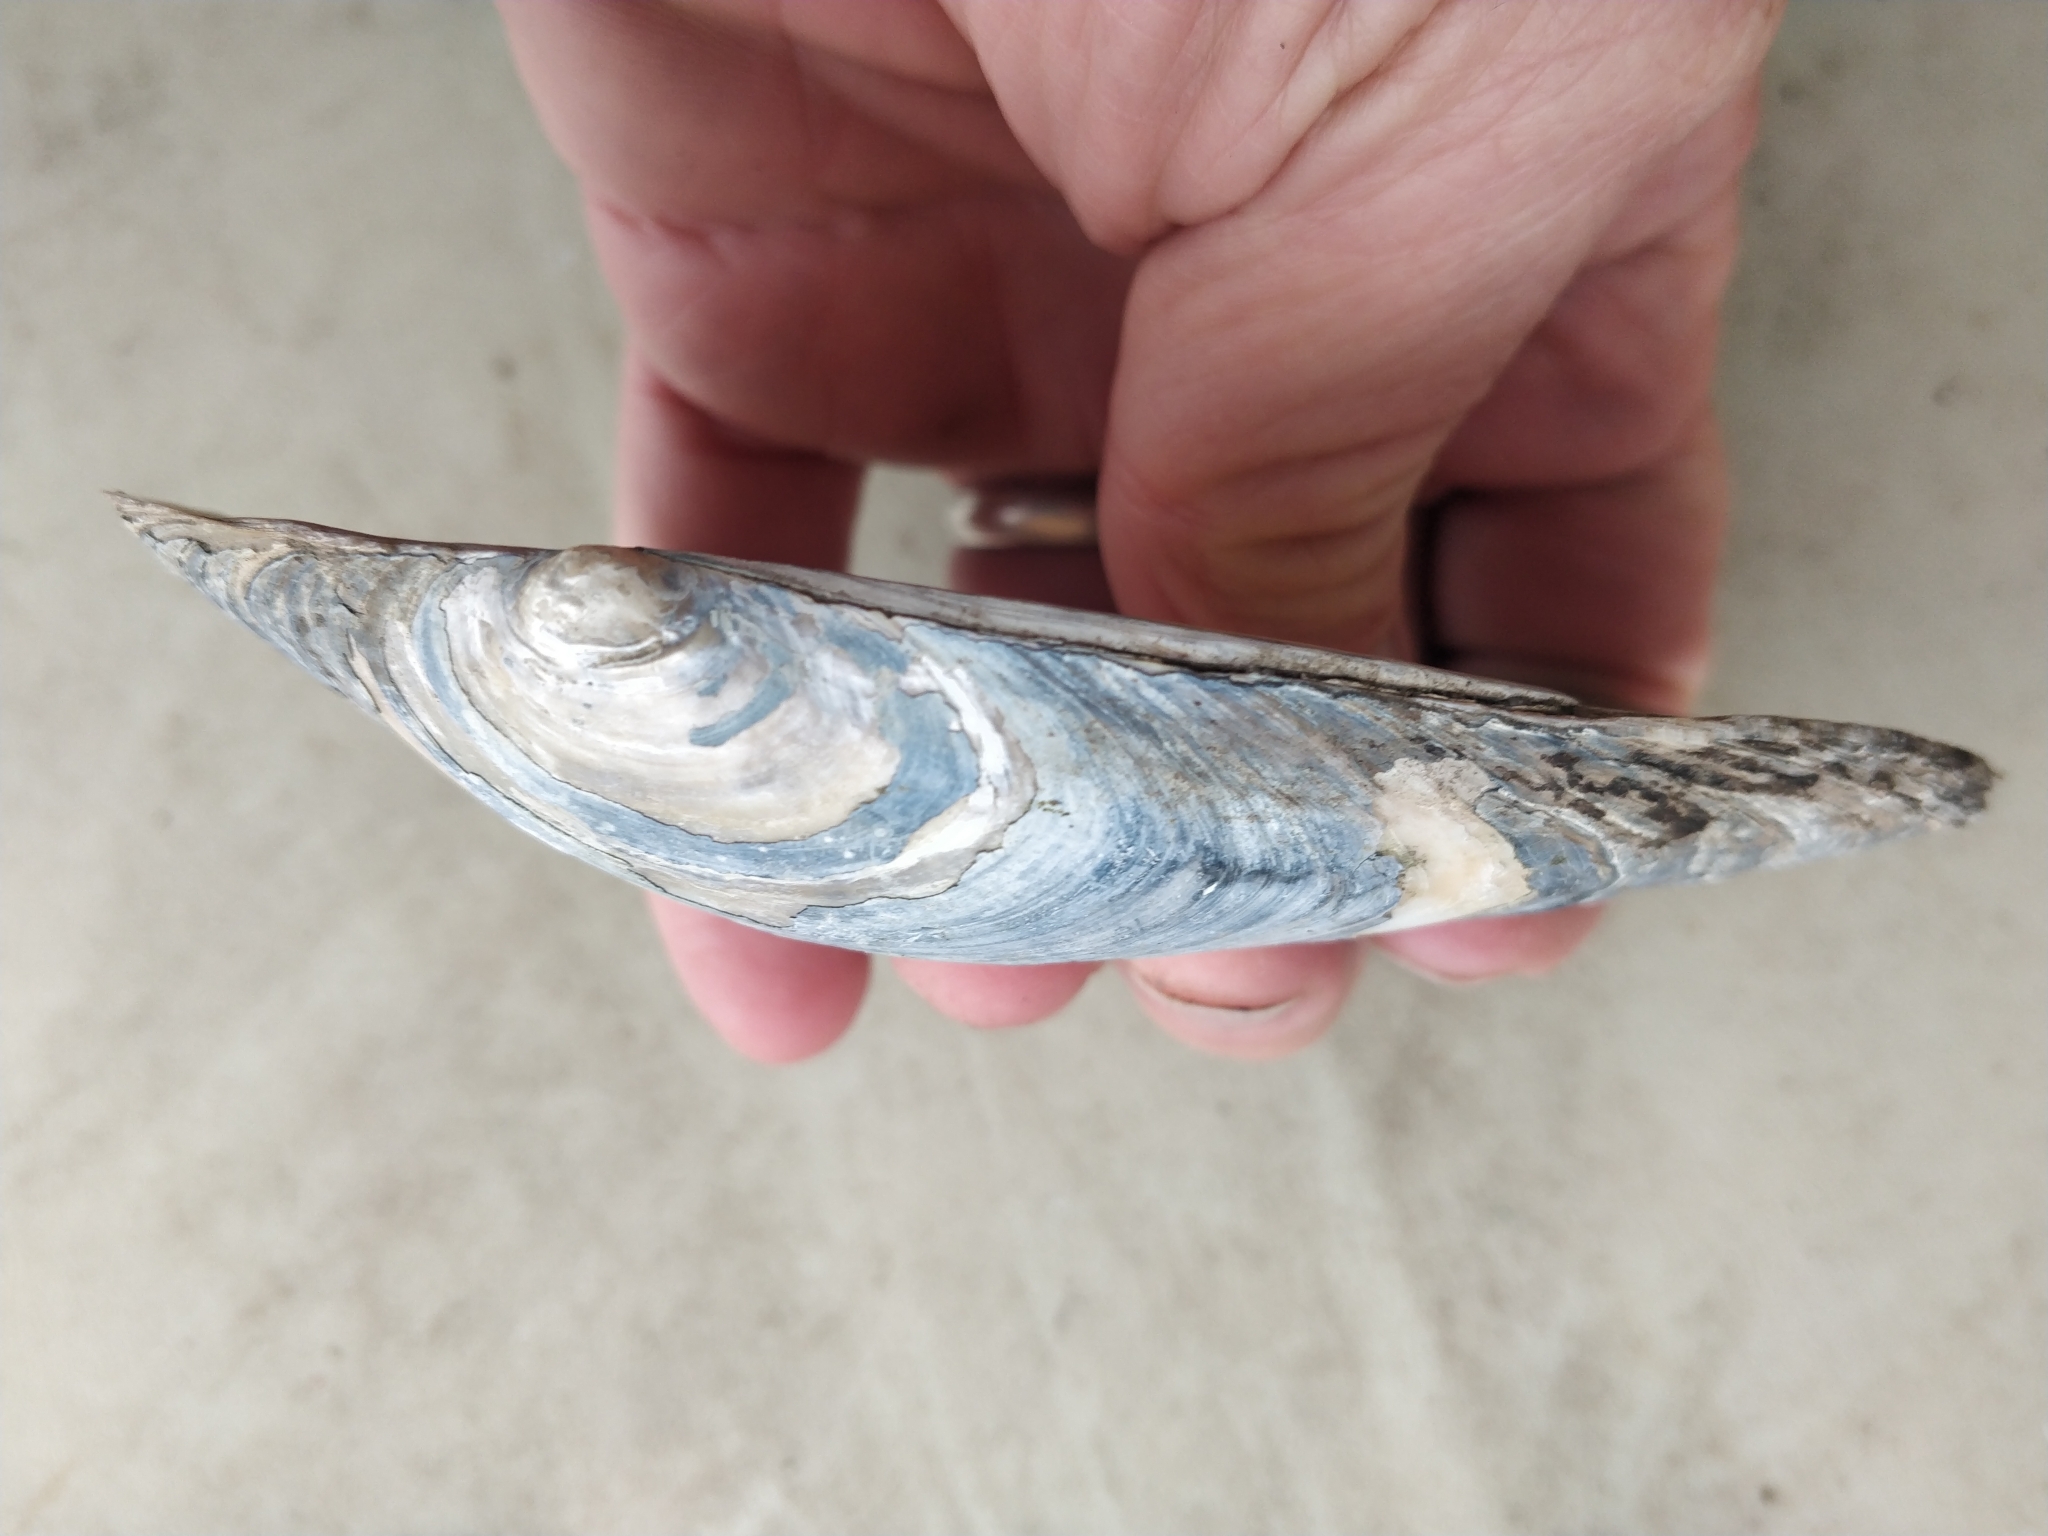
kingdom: Animalia
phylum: Mollusca
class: Bivalvia
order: Unionida
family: Unionidae
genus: Pyganodon
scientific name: Pyganodon grandis
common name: Giant floater
